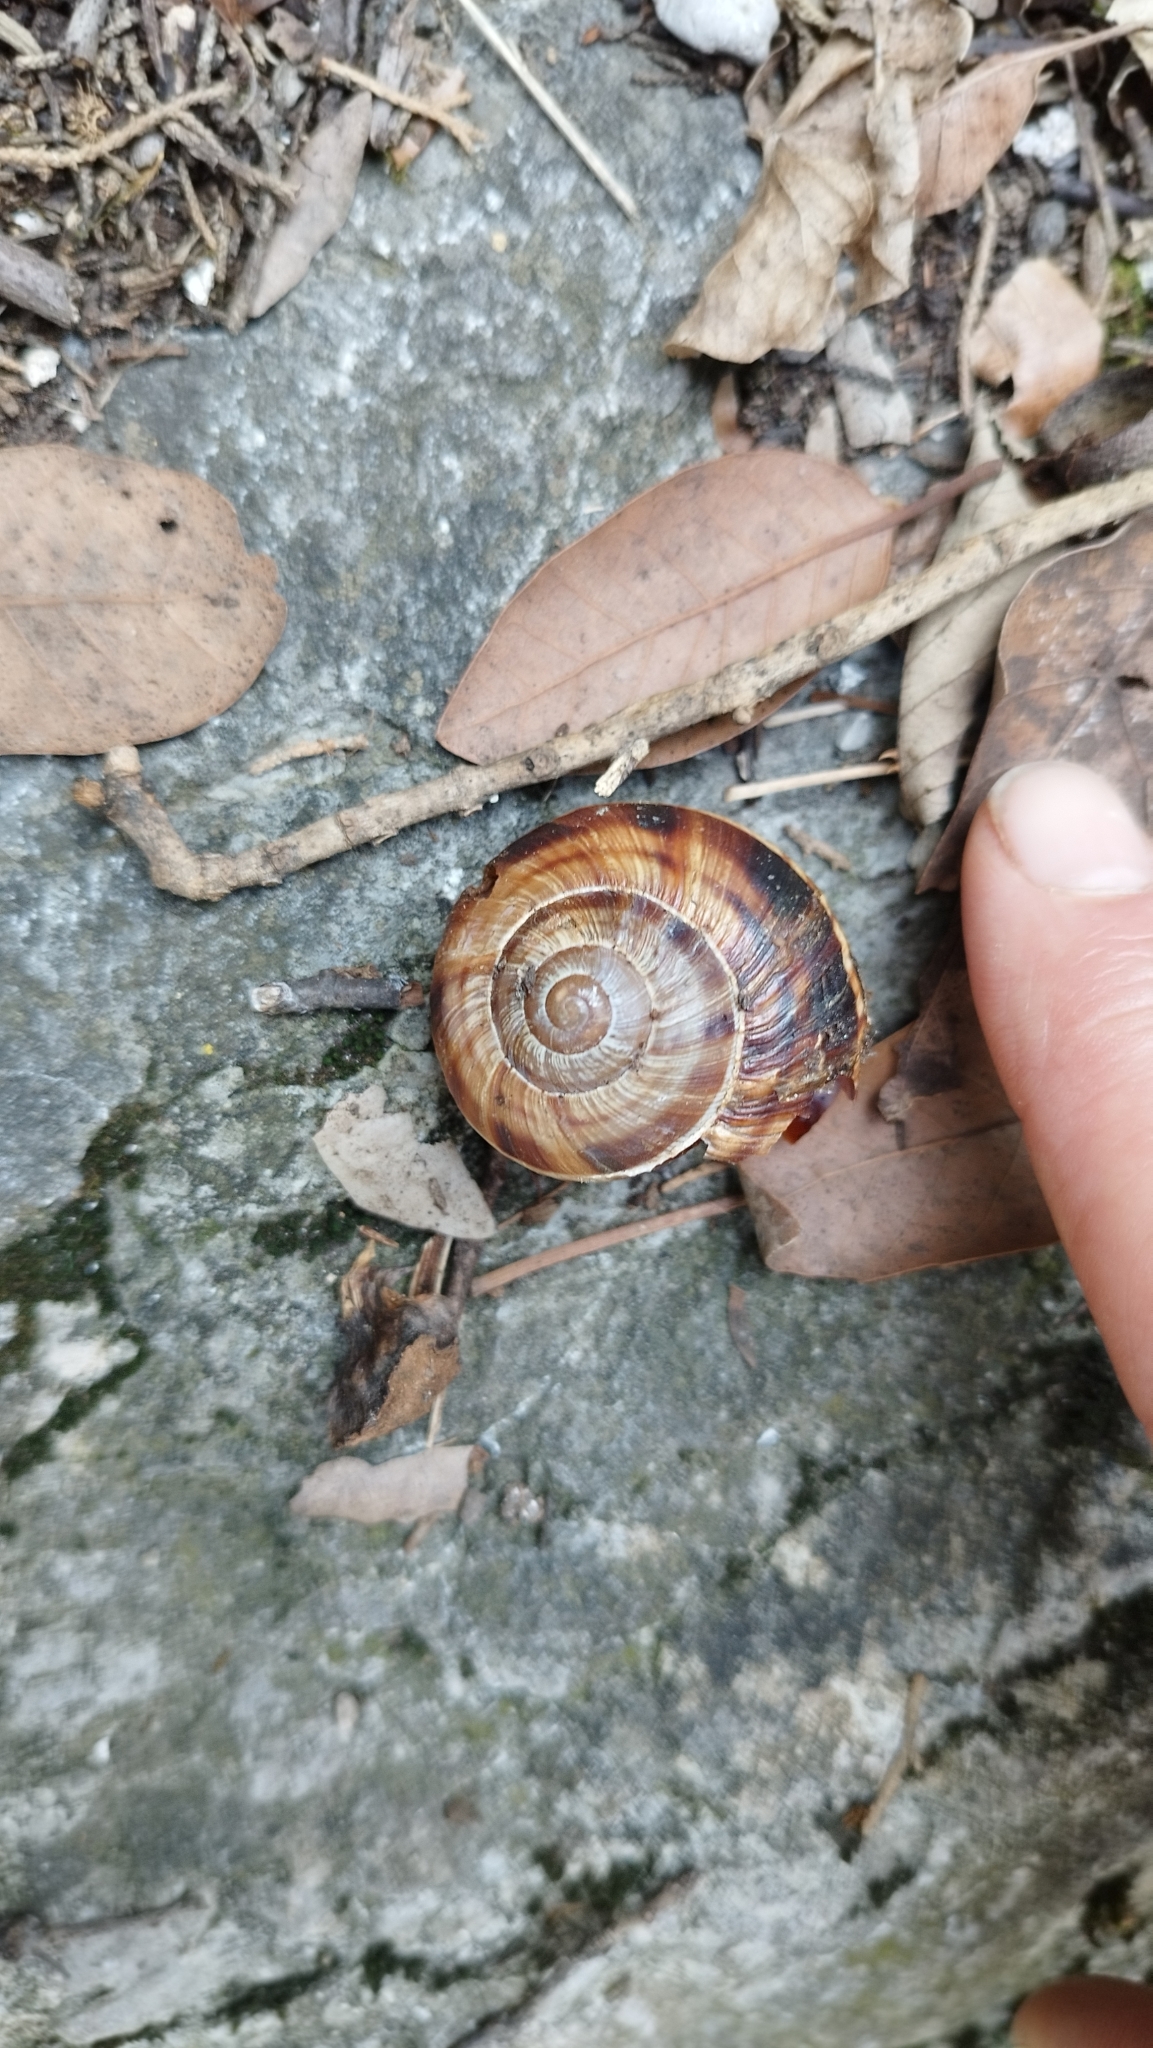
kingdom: Animalia
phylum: Mollusca
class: Gastropoda
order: Stylommatophora
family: Helicidae
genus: Helix
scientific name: Helix lucorum
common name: Turkish snail
